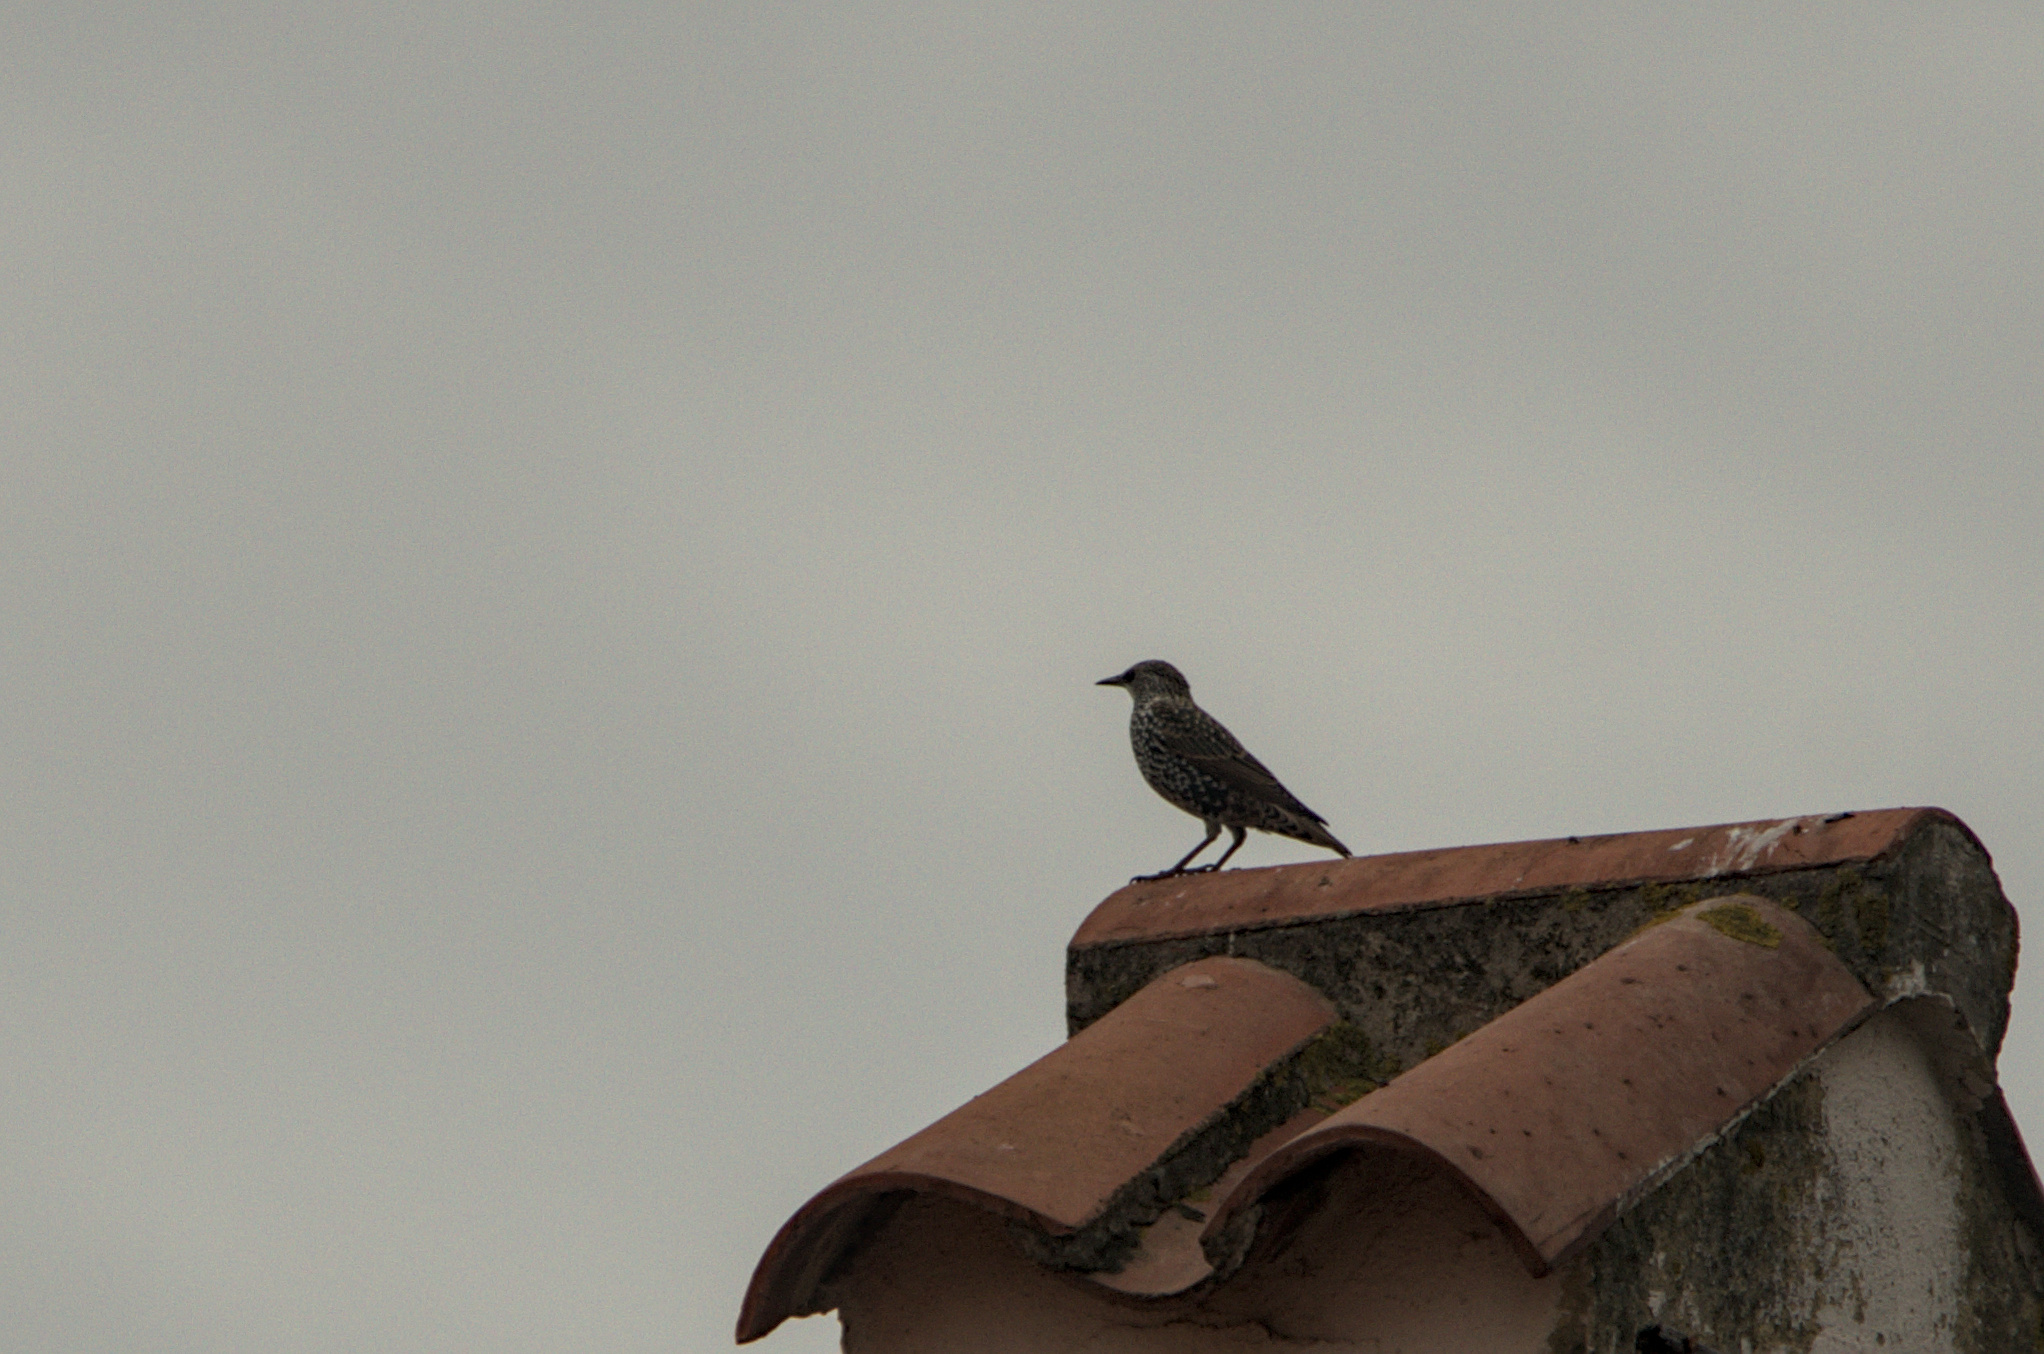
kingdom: Animalia
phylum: Chordata
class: Aves
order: Passeriformes
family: Sturnidae
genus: Sturnus
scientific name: Sturnus vulgaris
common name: Common starling
